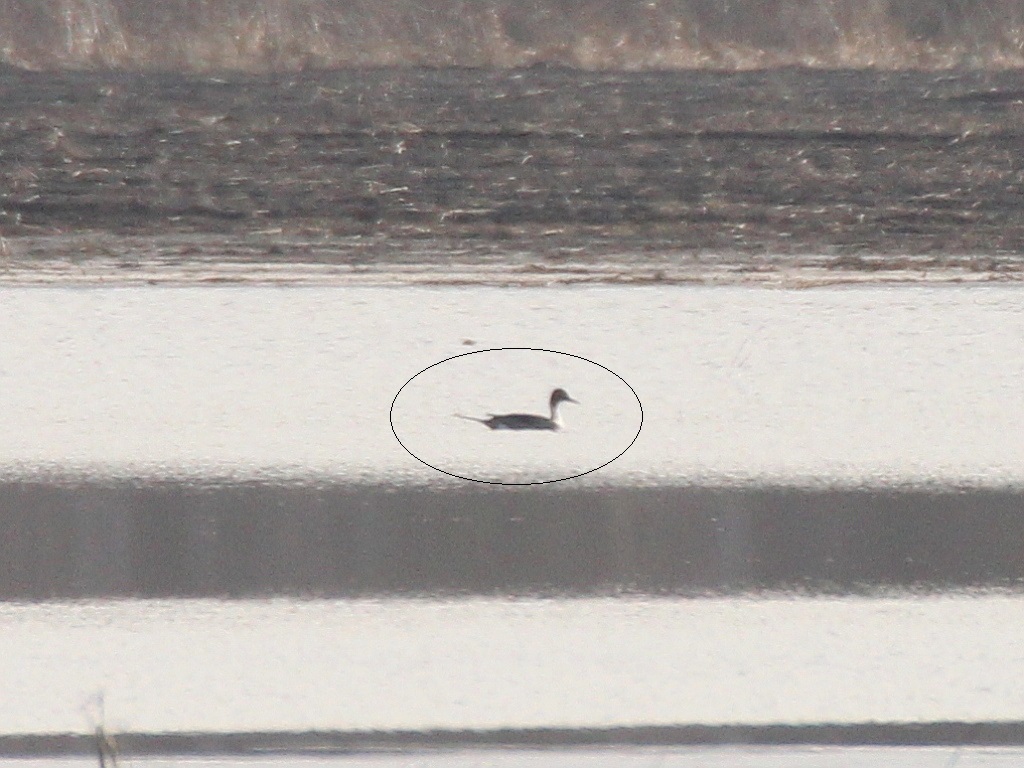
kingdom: Animalia
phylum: Chordata
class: Aves
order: Anseriformes
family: Anatidae
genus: Anas
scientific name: Anas acuta
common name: Northern pintail
